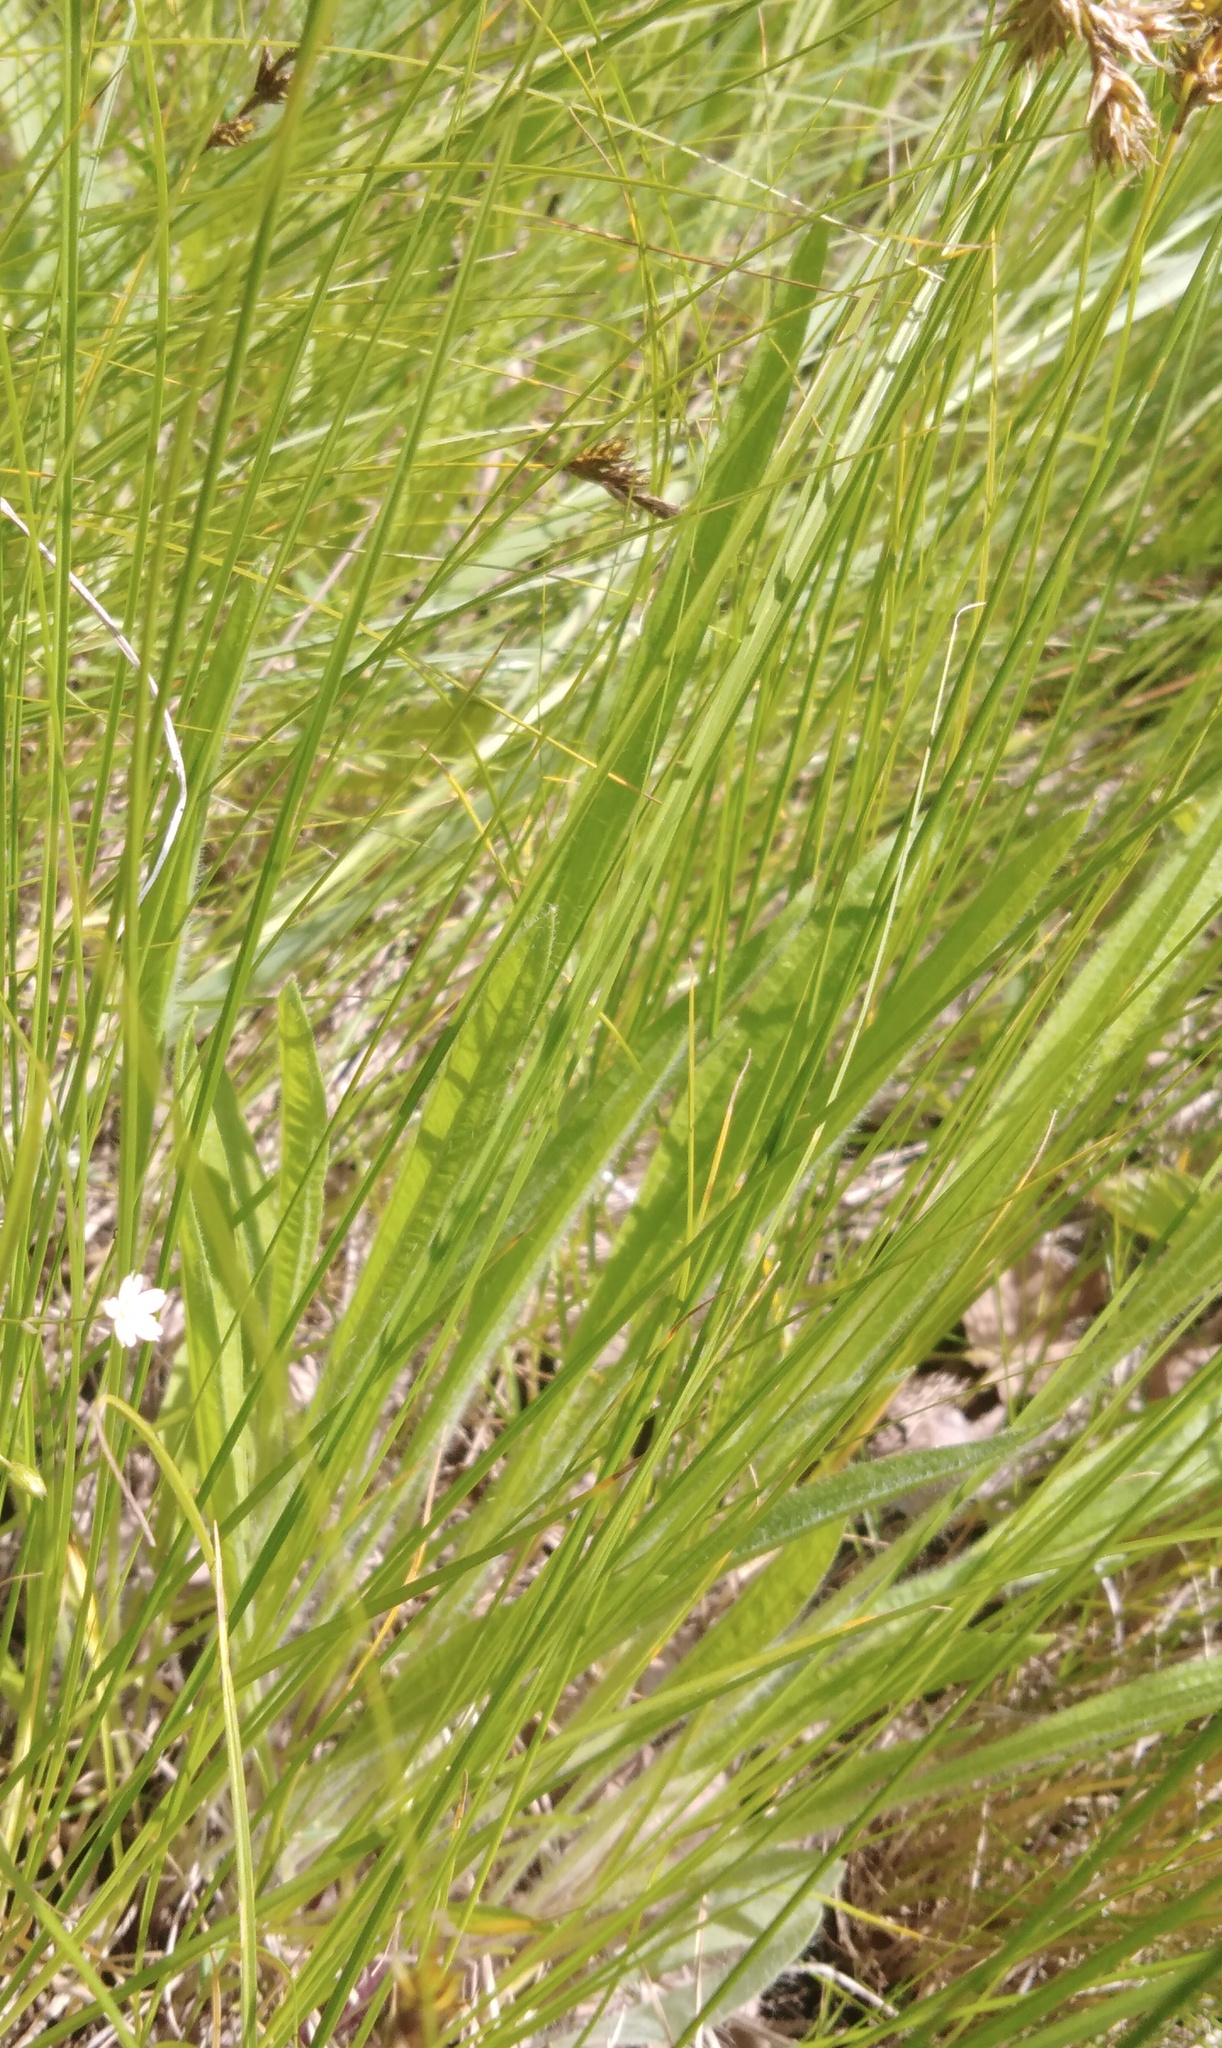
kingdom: Plantae
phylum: Tracheophyta
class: Liliopsida
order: Poales
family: Cyperaceae
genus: Carex
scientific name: Carex praecox
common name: Early sedge
